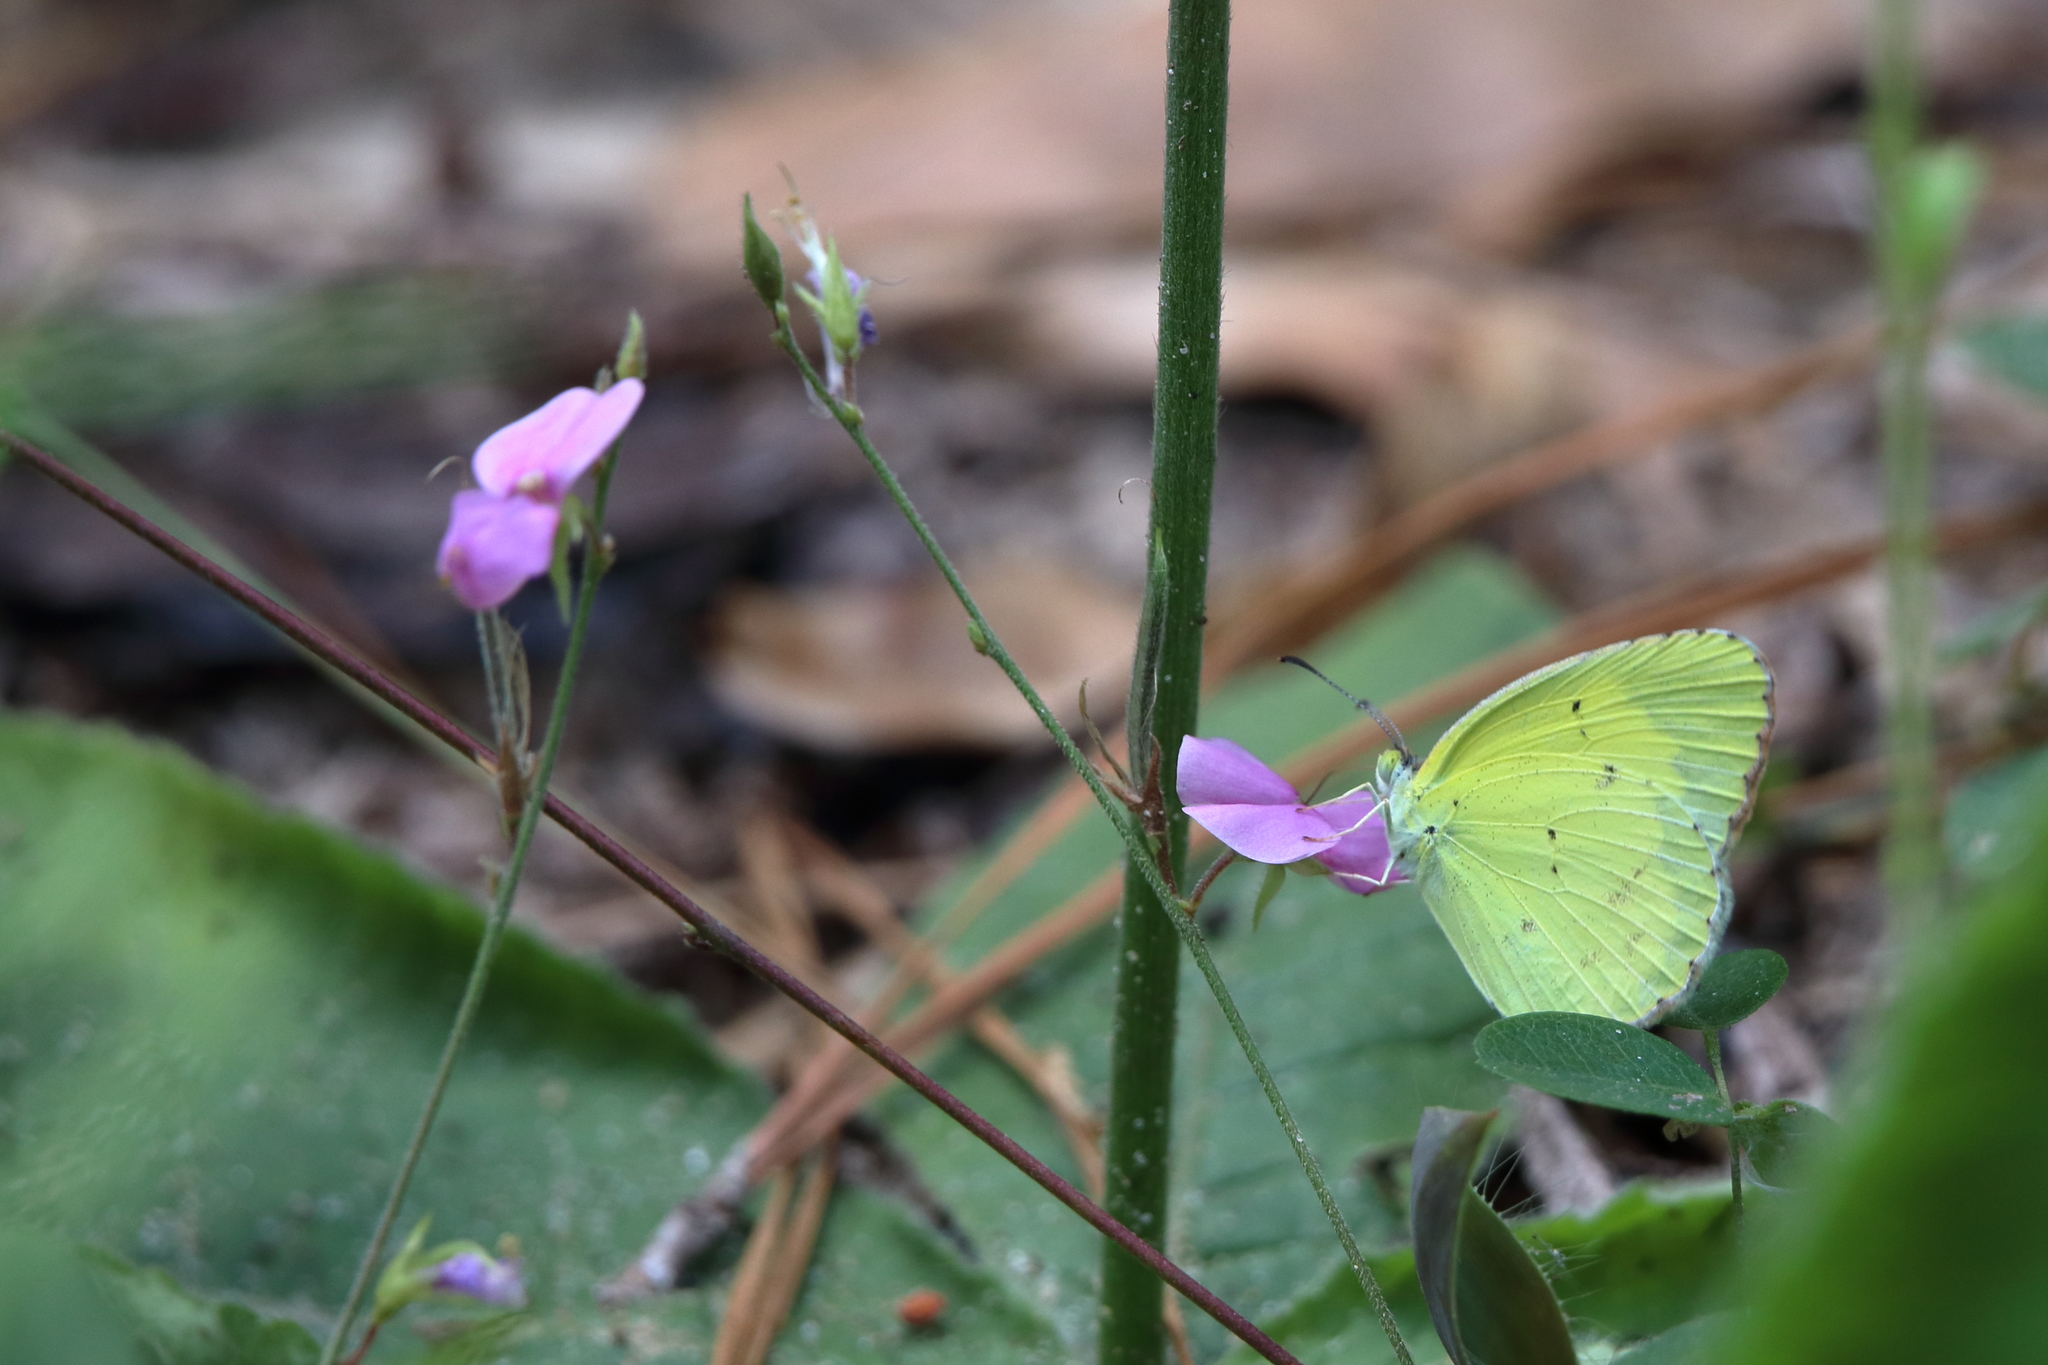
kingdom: Animalia
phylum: Arthropoda
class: Insecta
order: Lepidoptera
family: Pieridae
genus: Pyrisitia
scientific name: Pyrisitia lisa
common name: Little yellow
